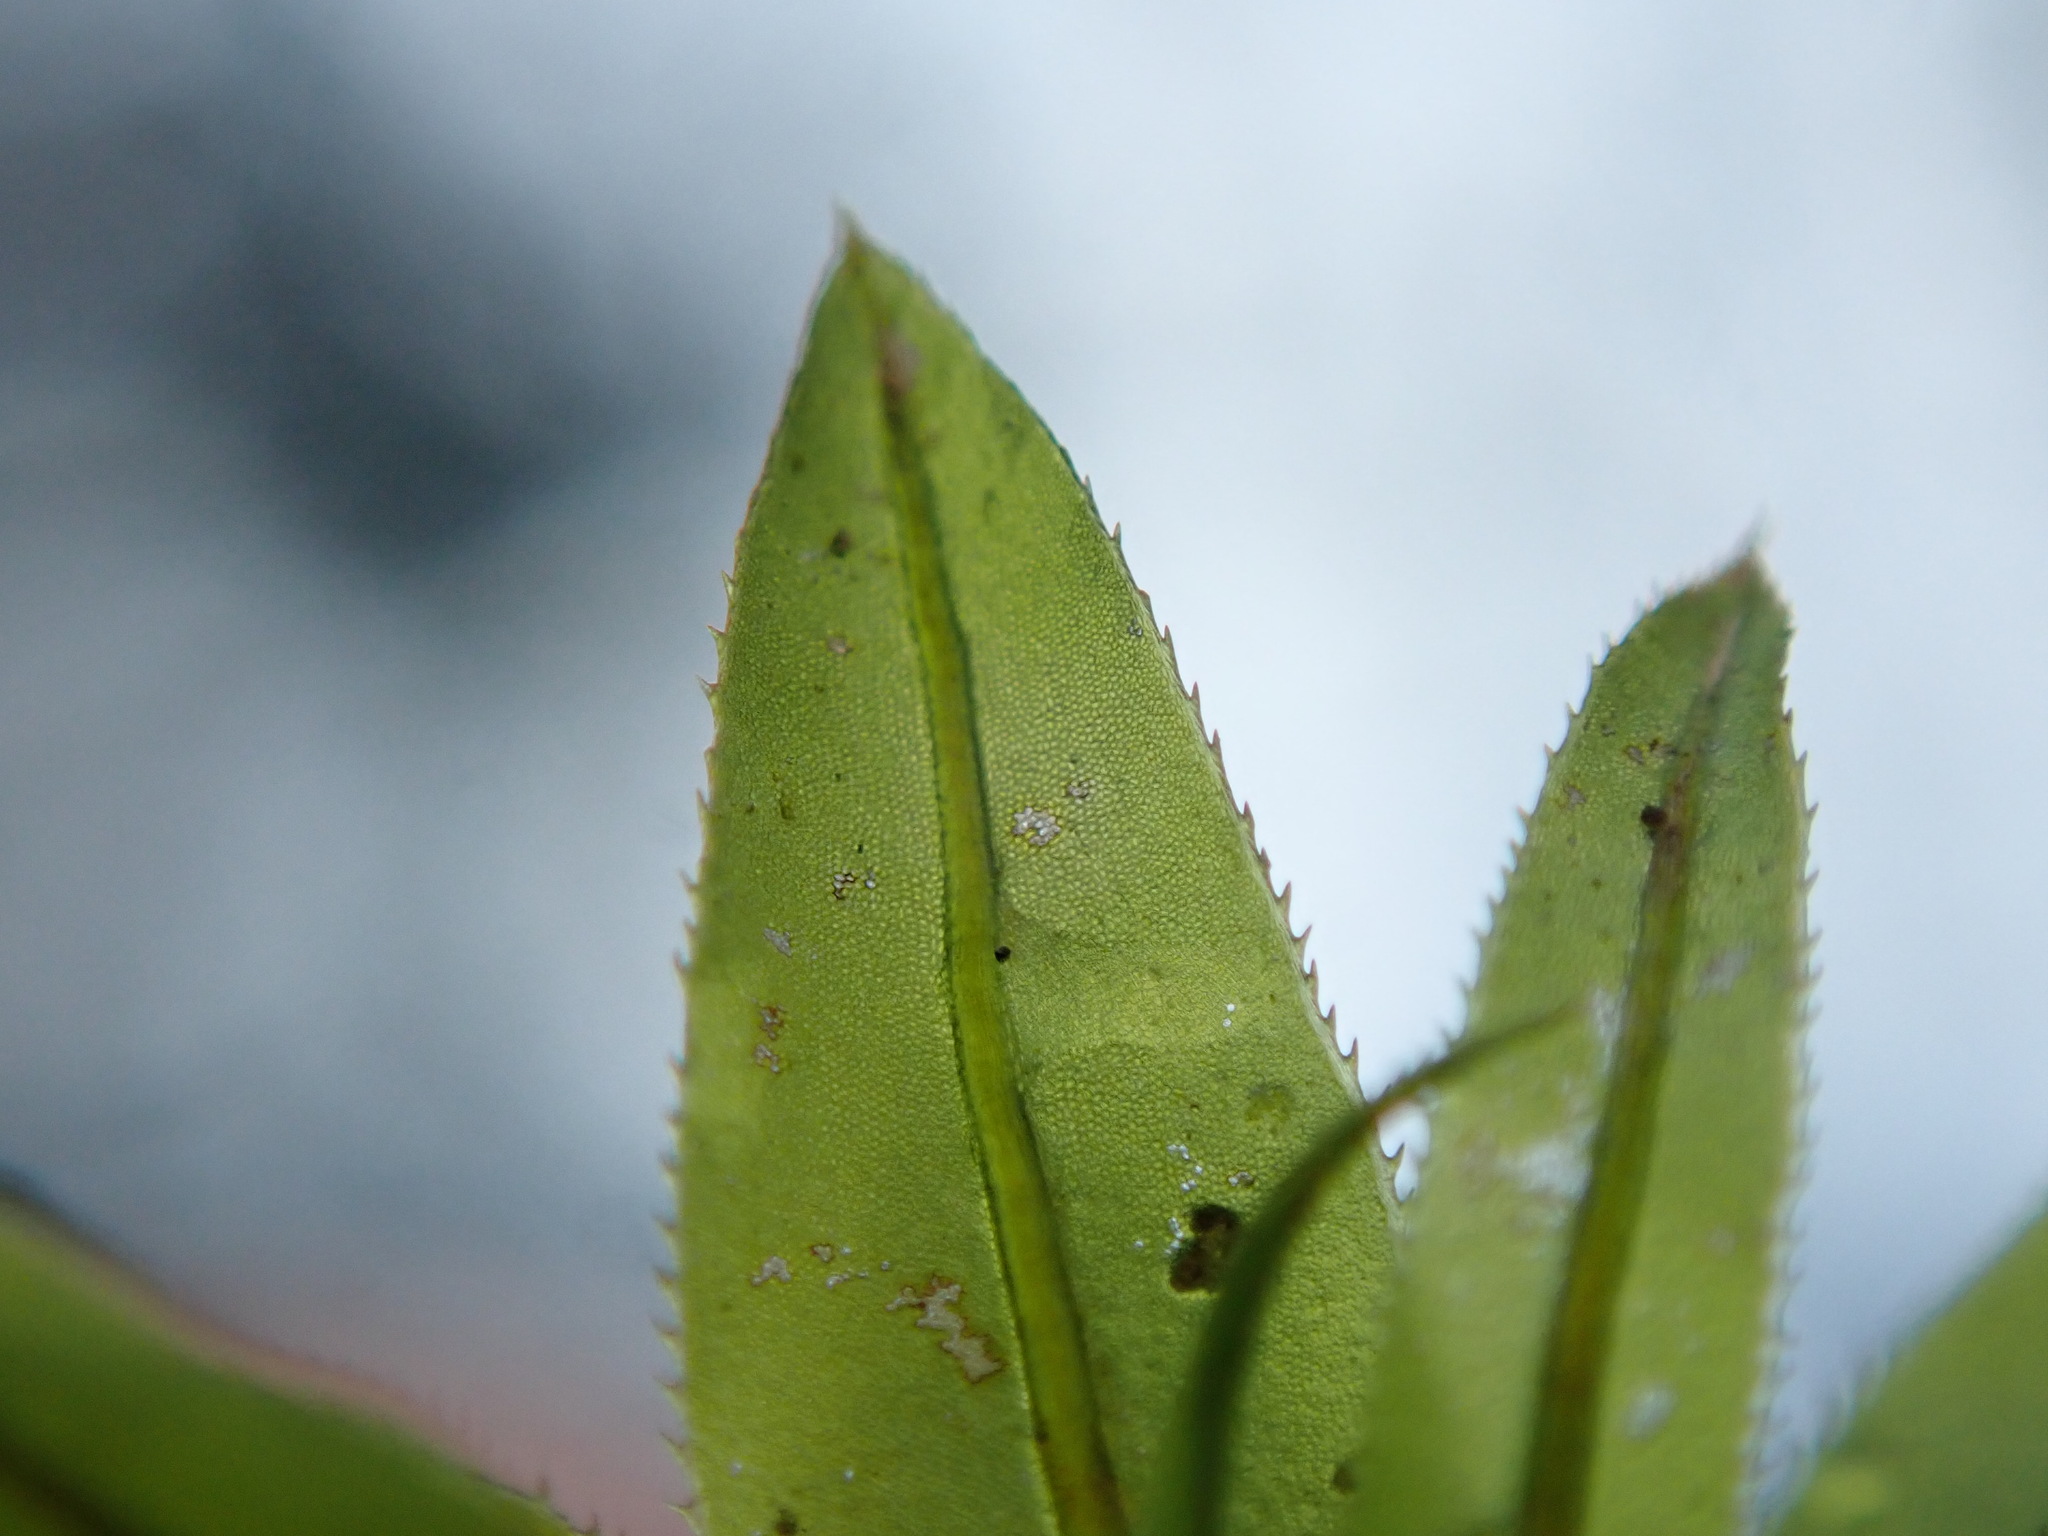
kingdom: Plantae
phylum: Bryophyta
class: Bryopsida
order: Bryales
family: Mniaceae
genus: Plagiomnium
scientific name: Plagiomnium insigne
